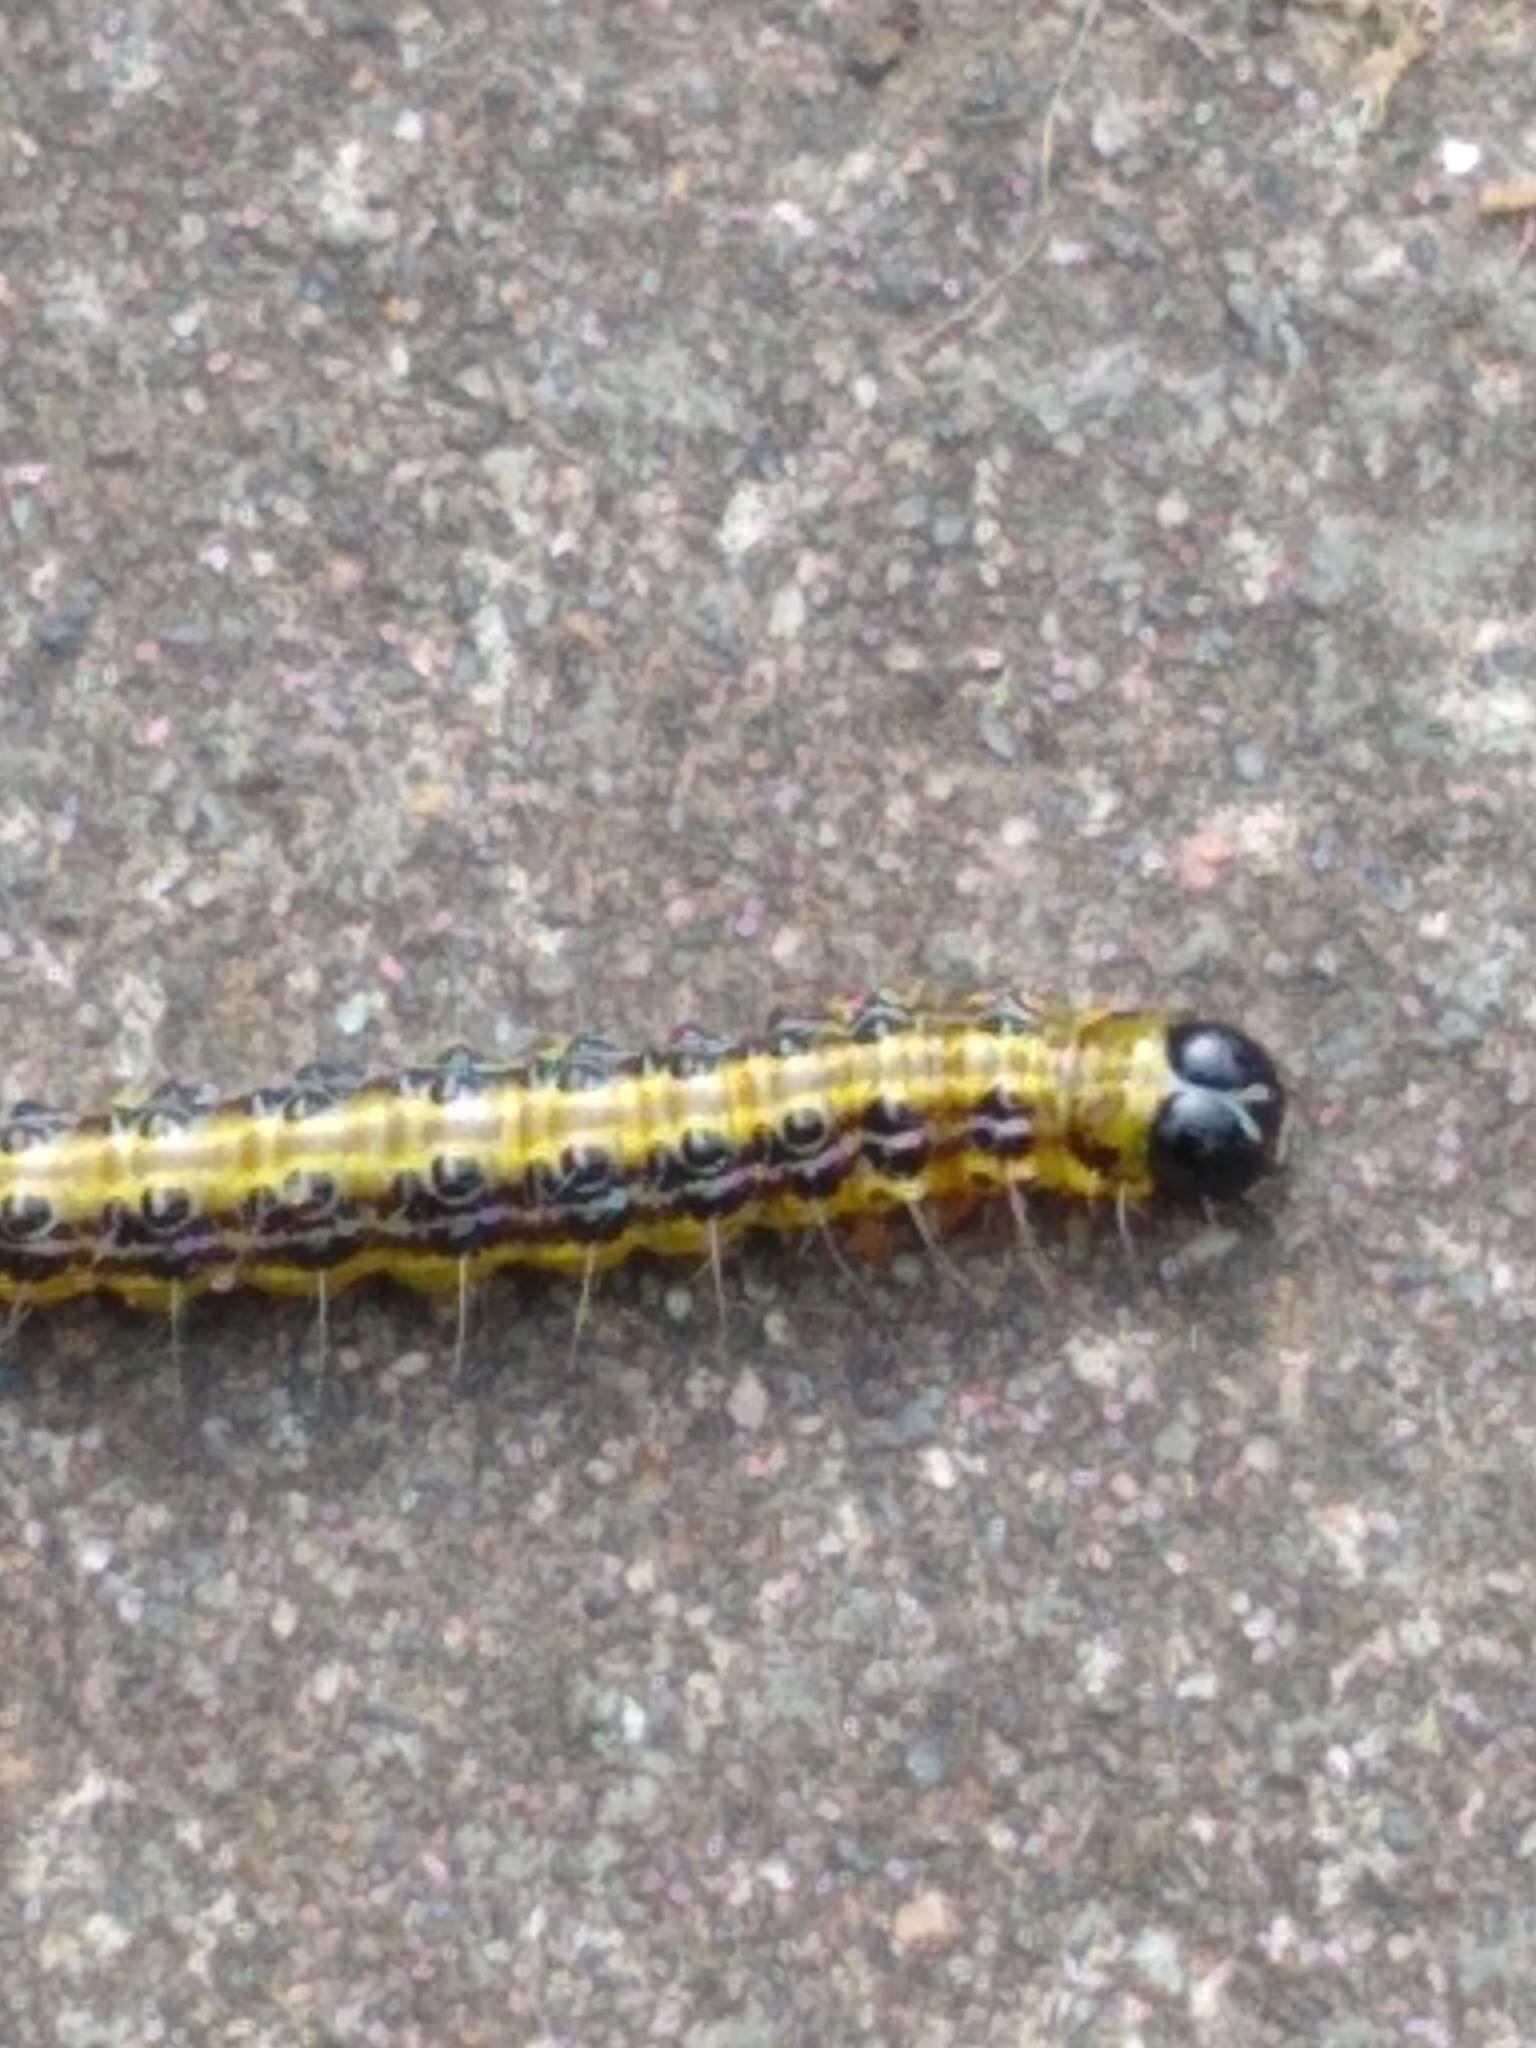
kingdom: Animalia
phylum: Arthropoda
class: Insecta
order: Lepidoptera
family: Crambidae
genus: Cydalima
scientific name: Cydalima perspectalis
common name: Box tree moth
